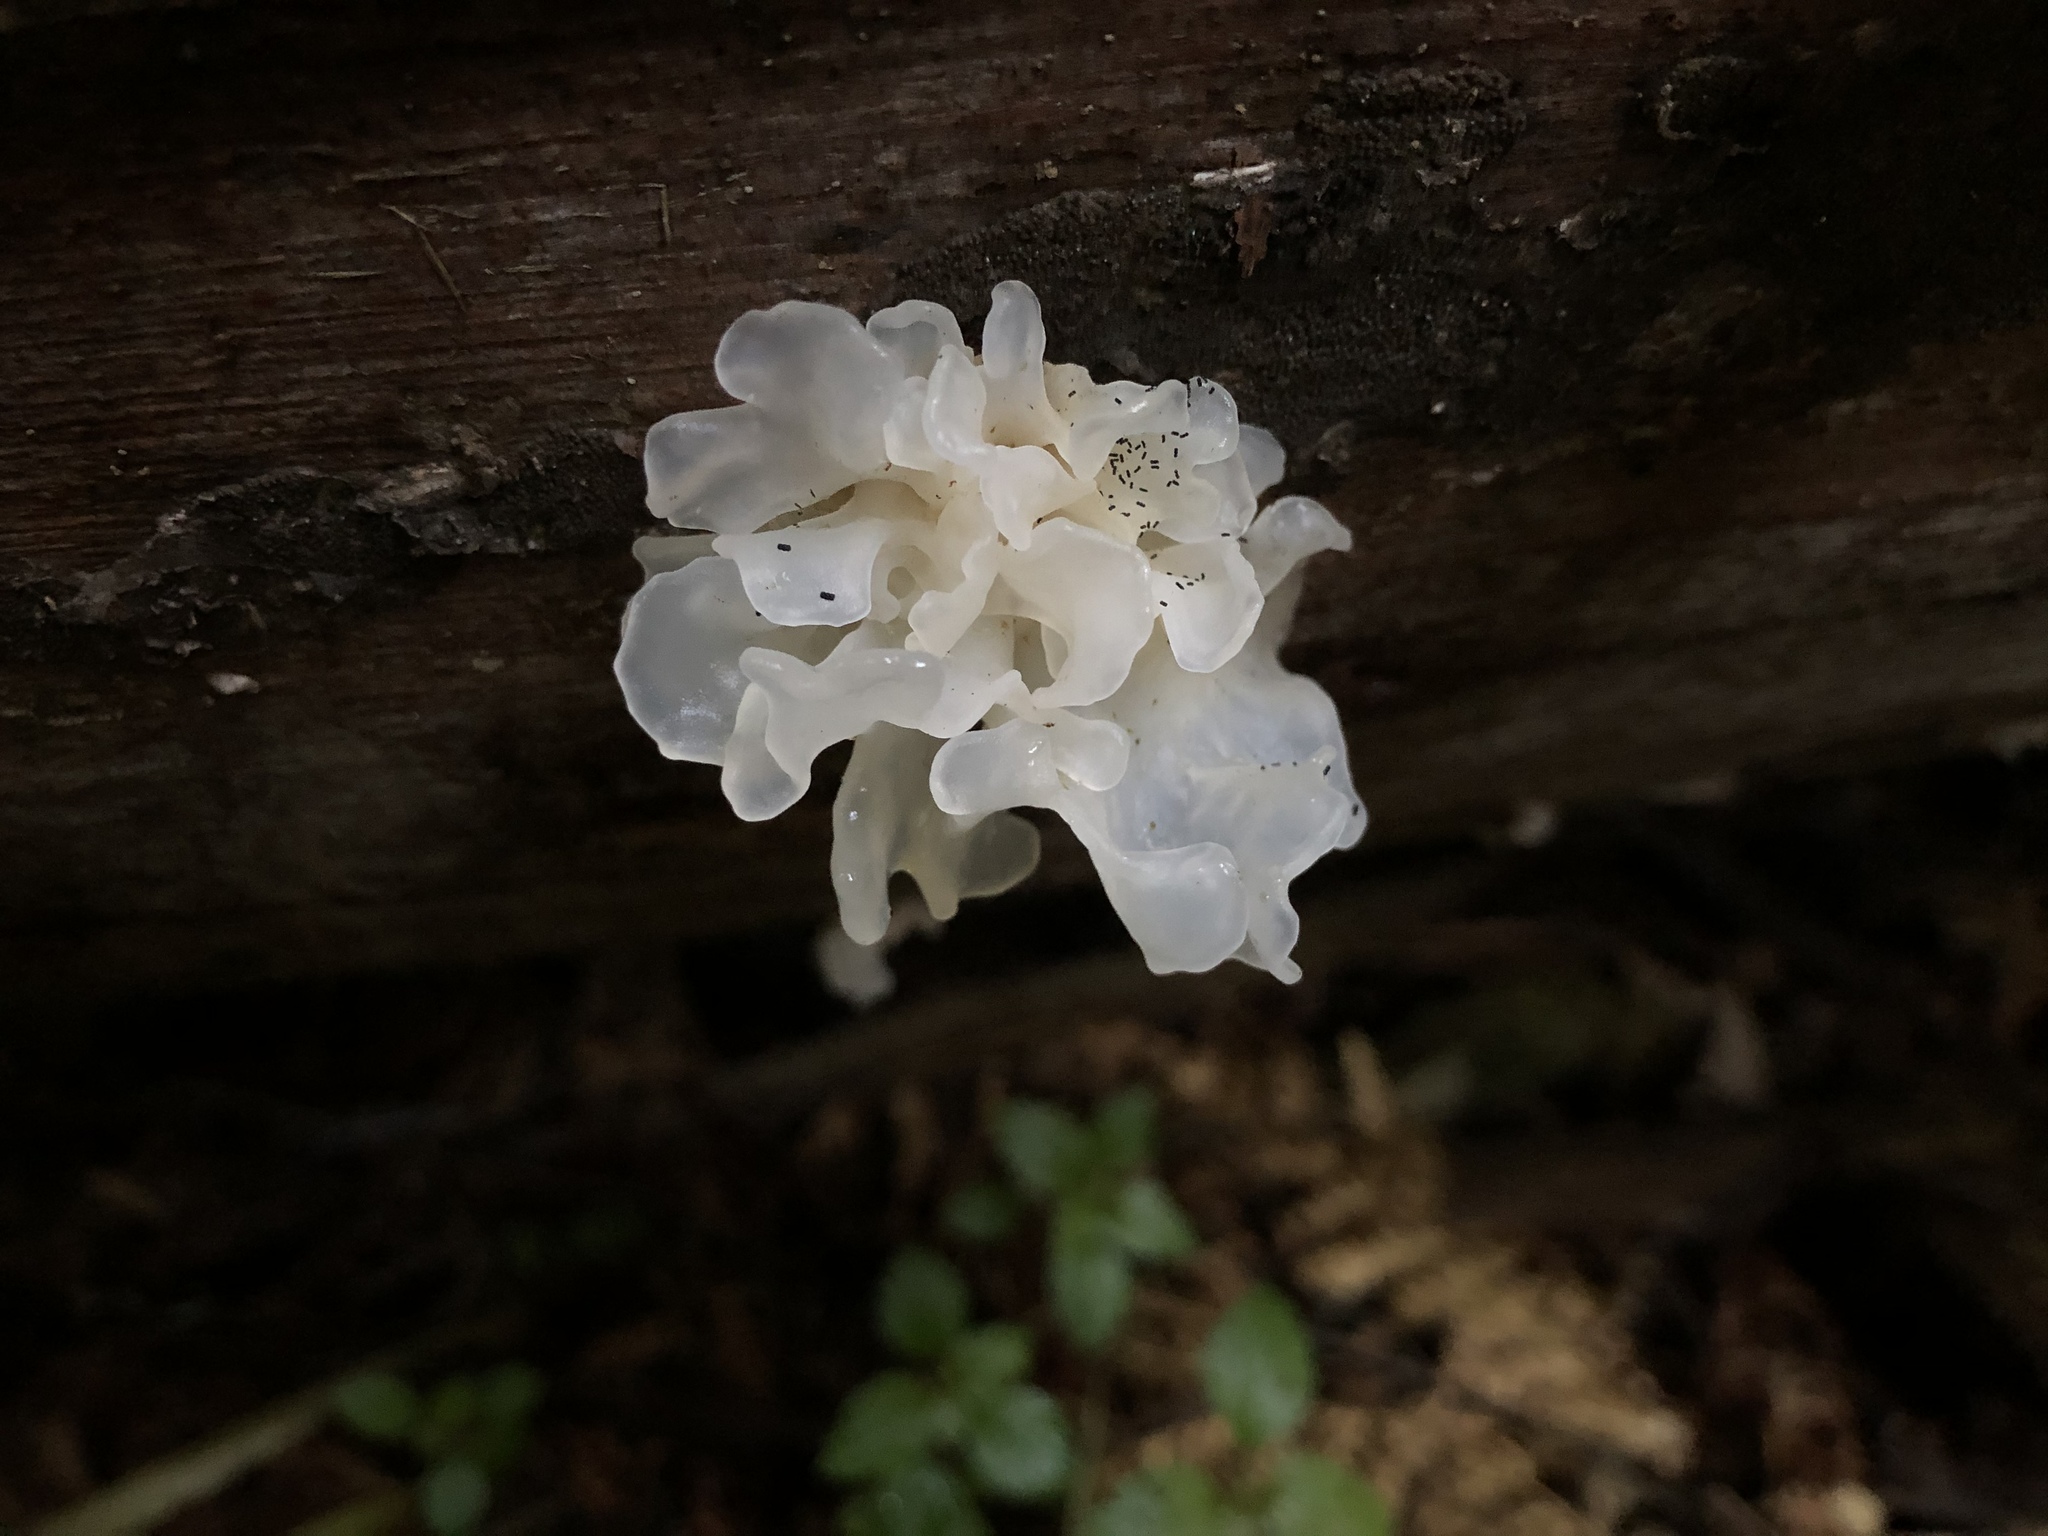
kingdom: Fungi
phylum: Basidiomycota
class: Tremellomycetes
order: Tremellales
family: Tremellaceae
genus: Tremella
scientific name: Tremella fuciformis
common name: Snow fungus
